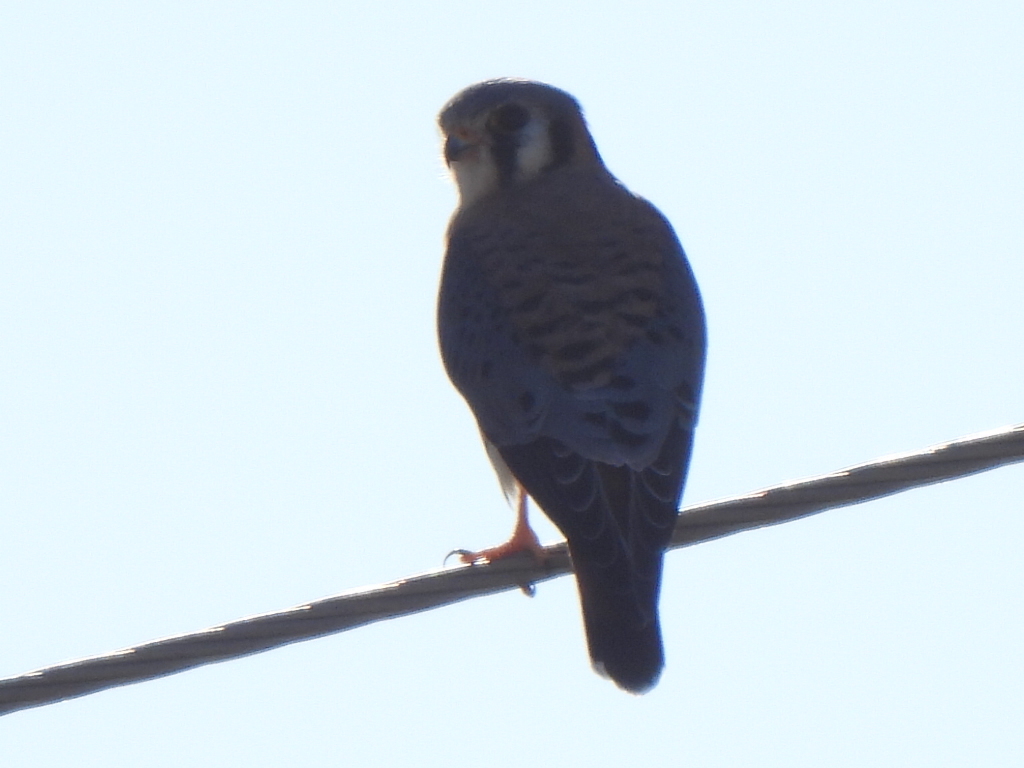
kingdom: Animalia
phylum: Chordata
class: Aves
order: Falconiformes
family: Falconidae
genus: Falco
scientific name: Falco sparverius
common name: American kestrel
